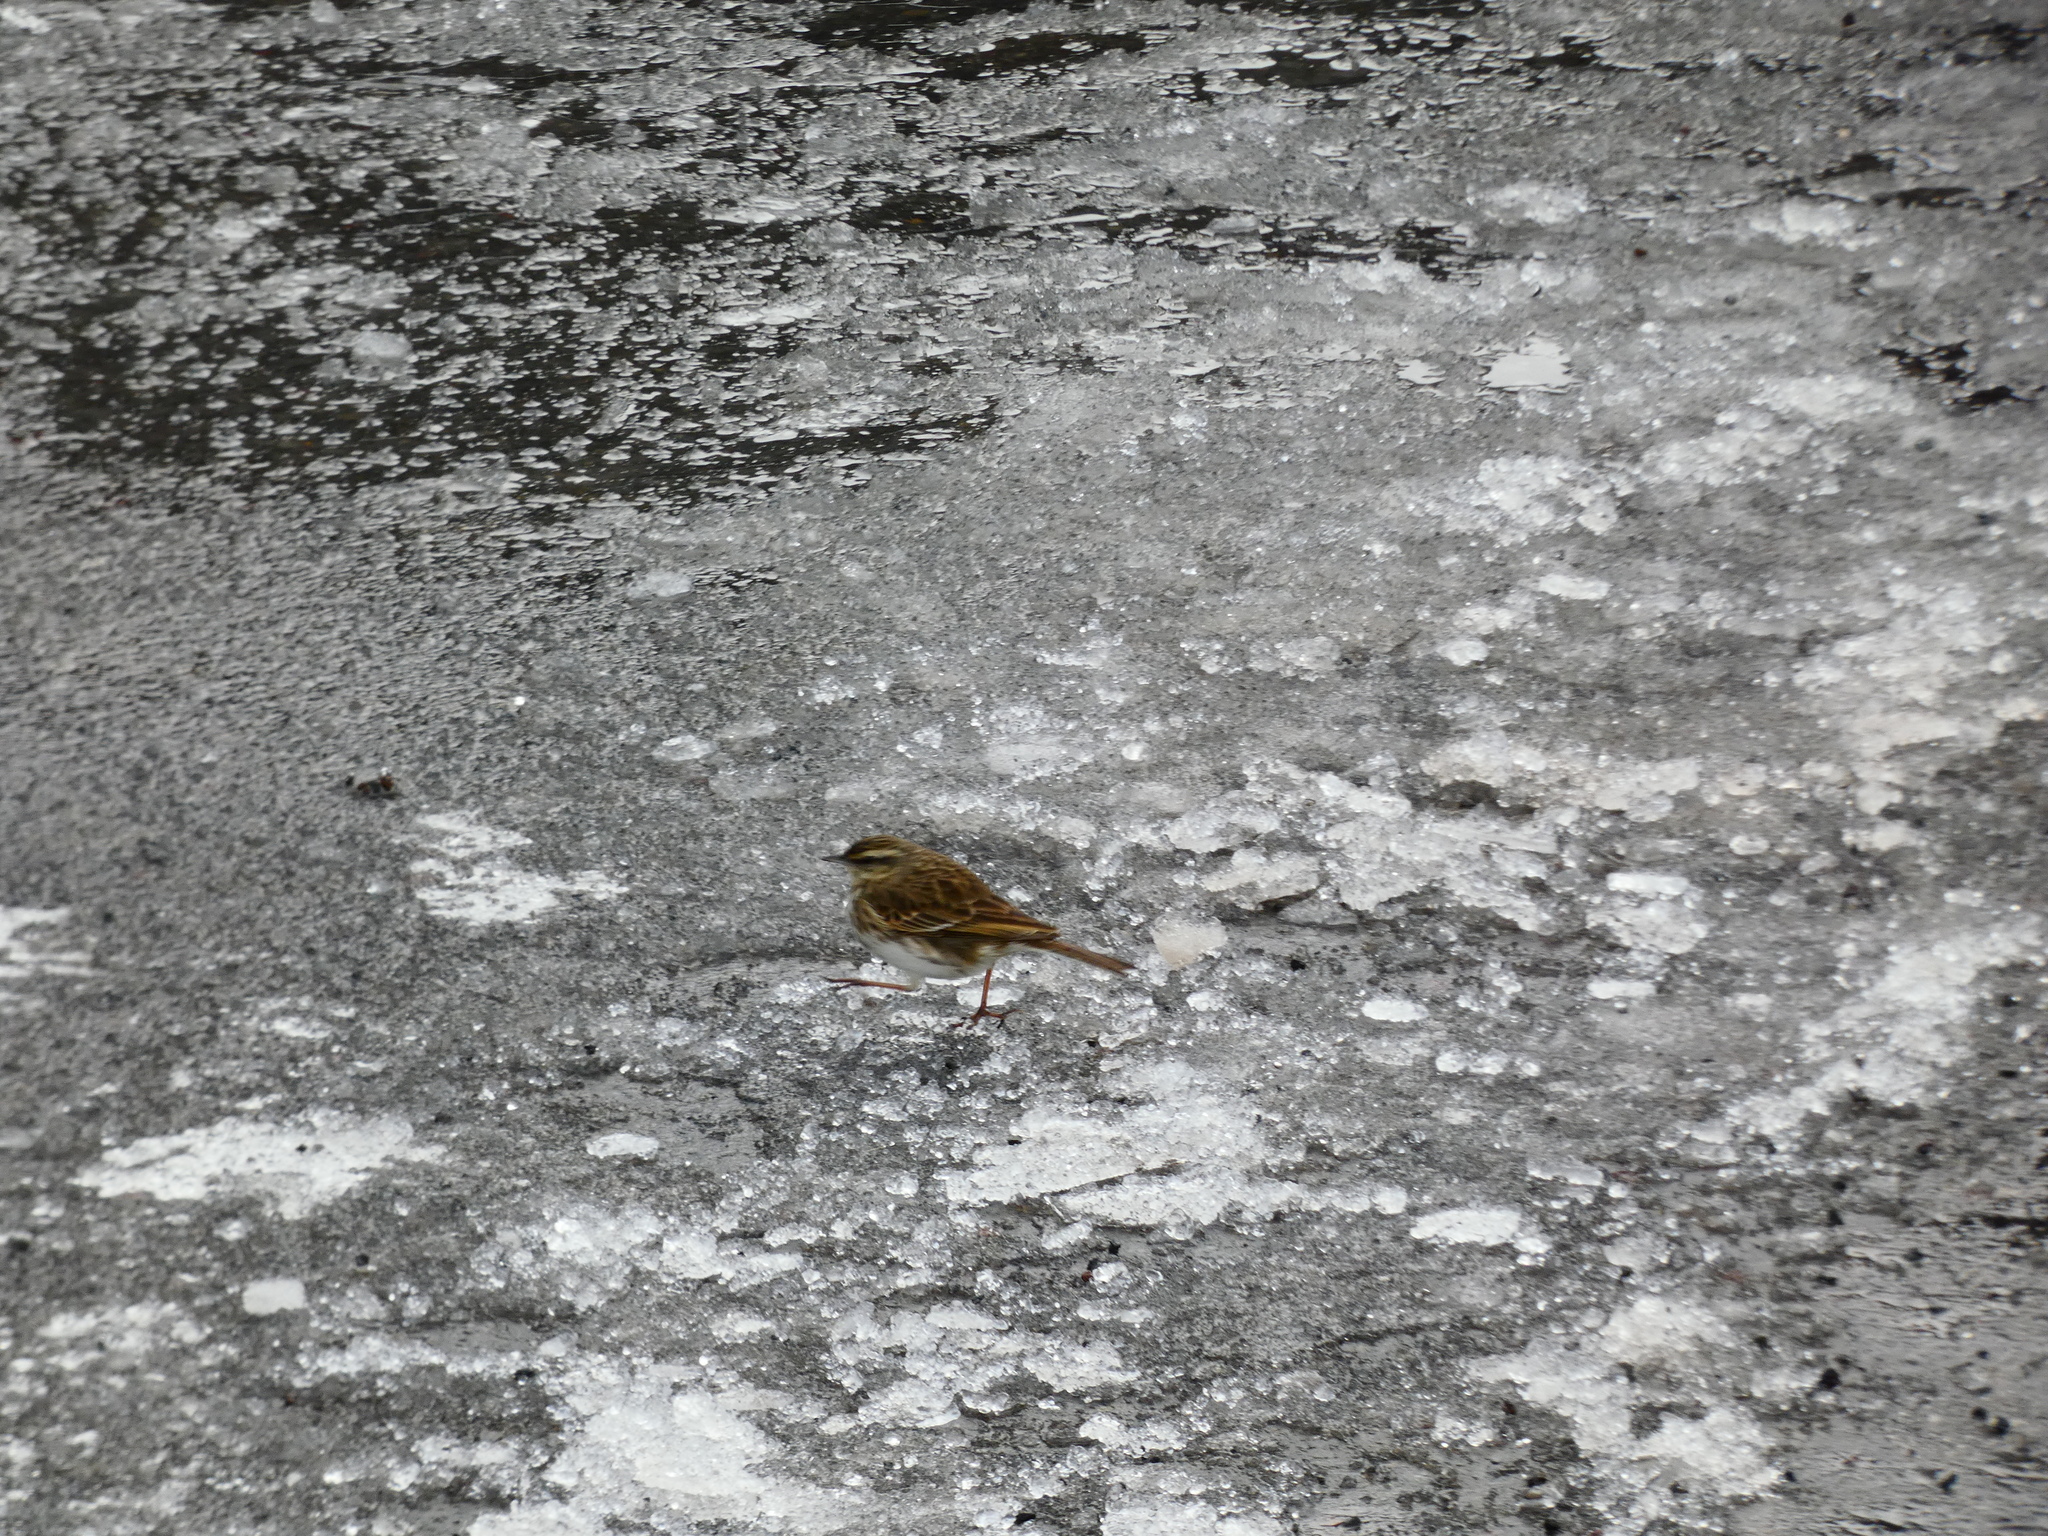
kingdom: Animalia
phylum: Chordata
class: Aves
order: Passeriformes
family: Motacillidae
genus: Anthus
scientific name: Anthus novaeseelandiae
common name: New zealand pipit
